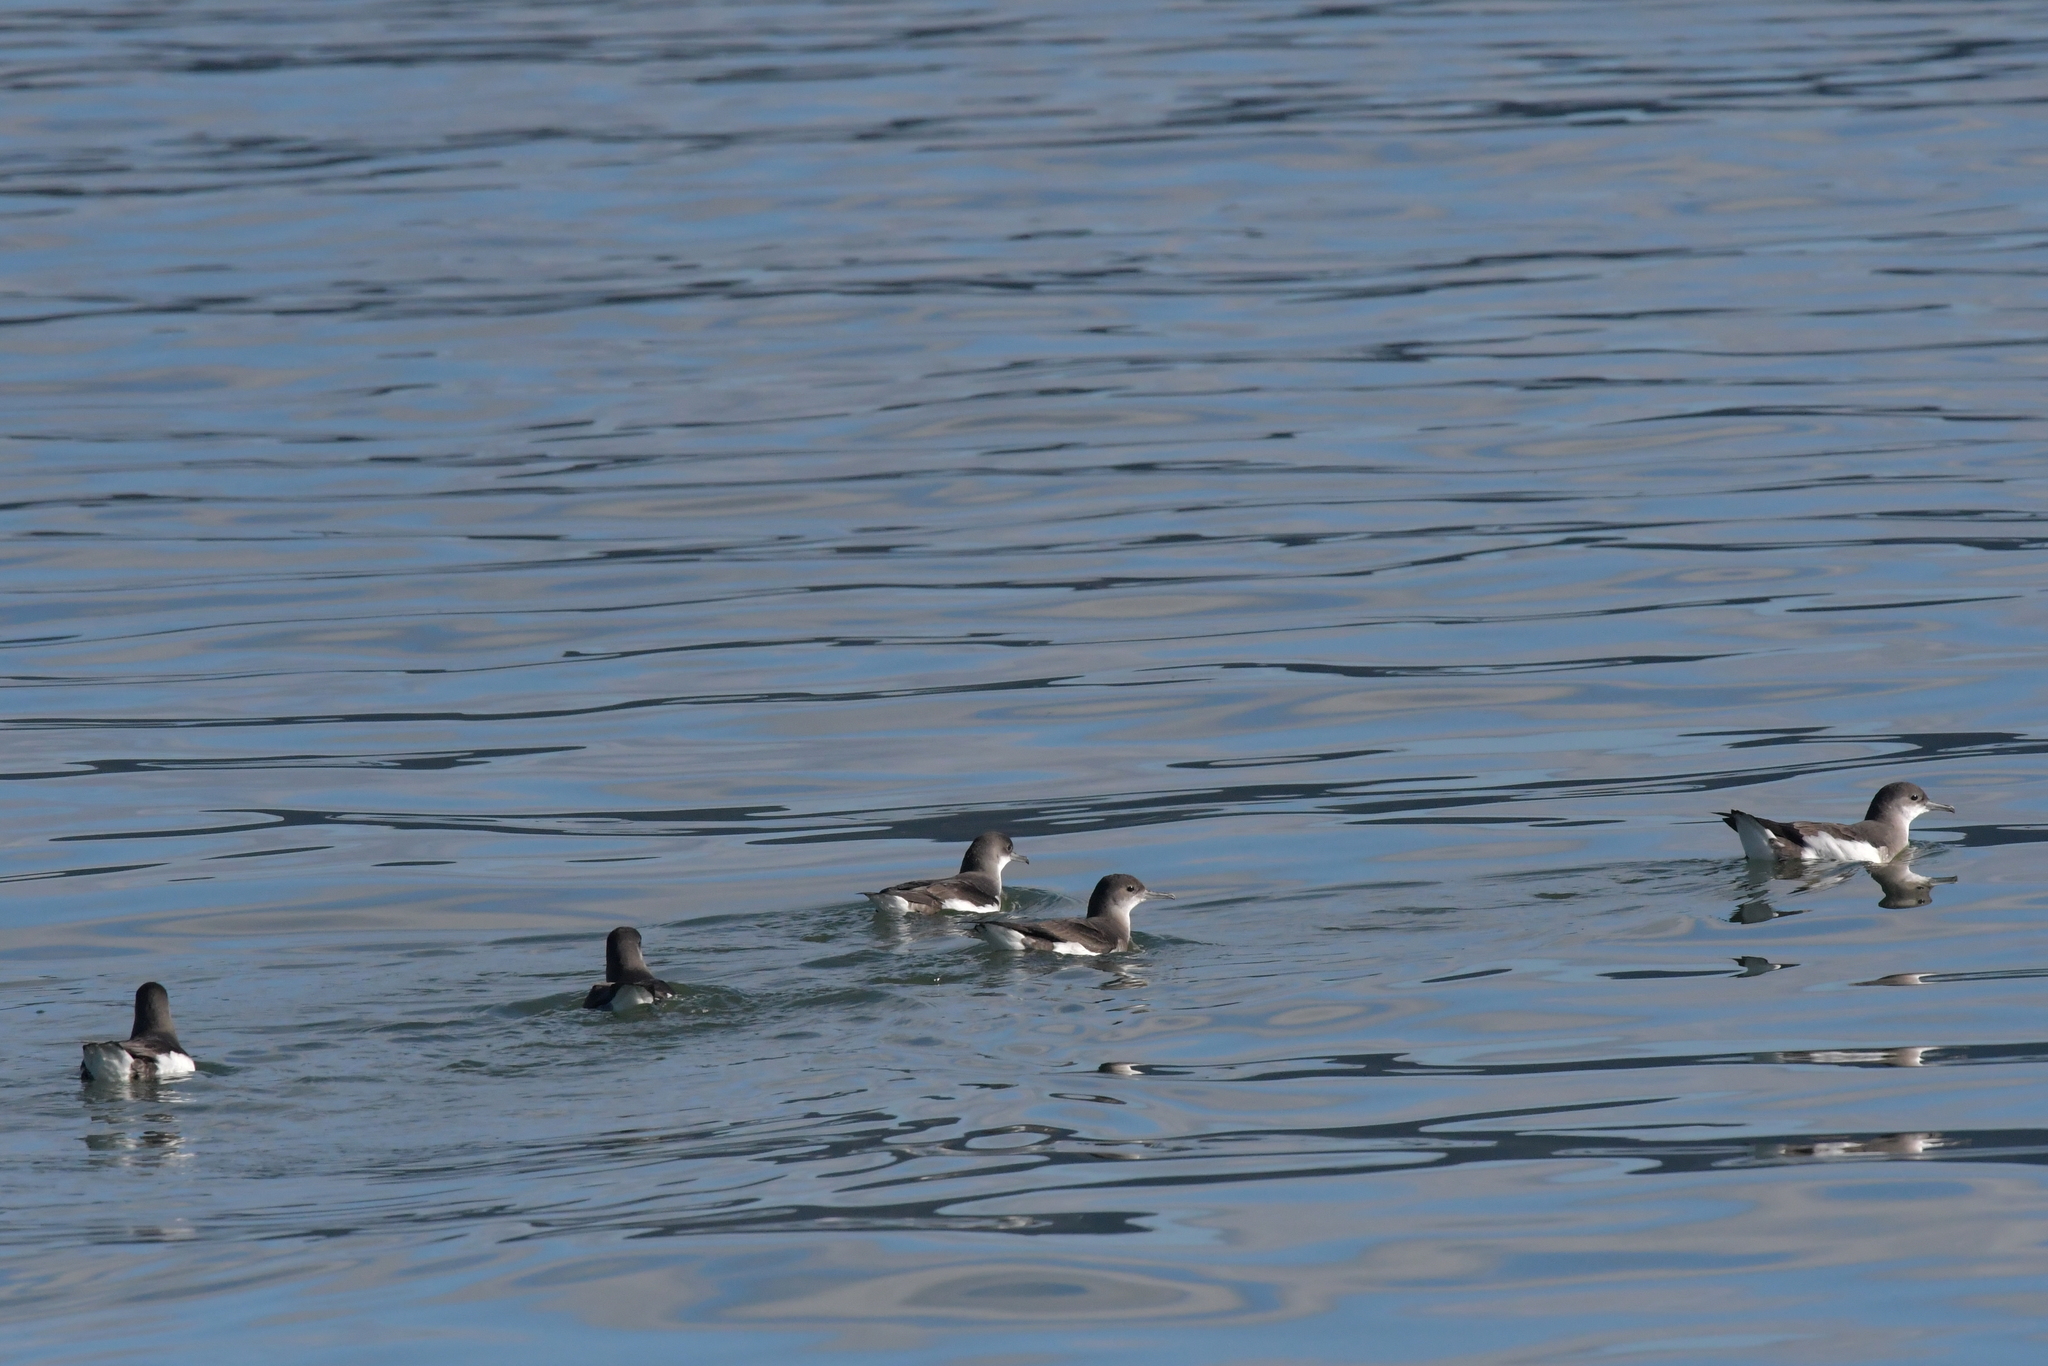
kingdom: Animalia
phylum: Chordata
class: Aves
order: Procellariiformes
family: Procellariidae
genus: Puffinus
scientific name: Puffinus gavia
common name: Fluttering shearwater
